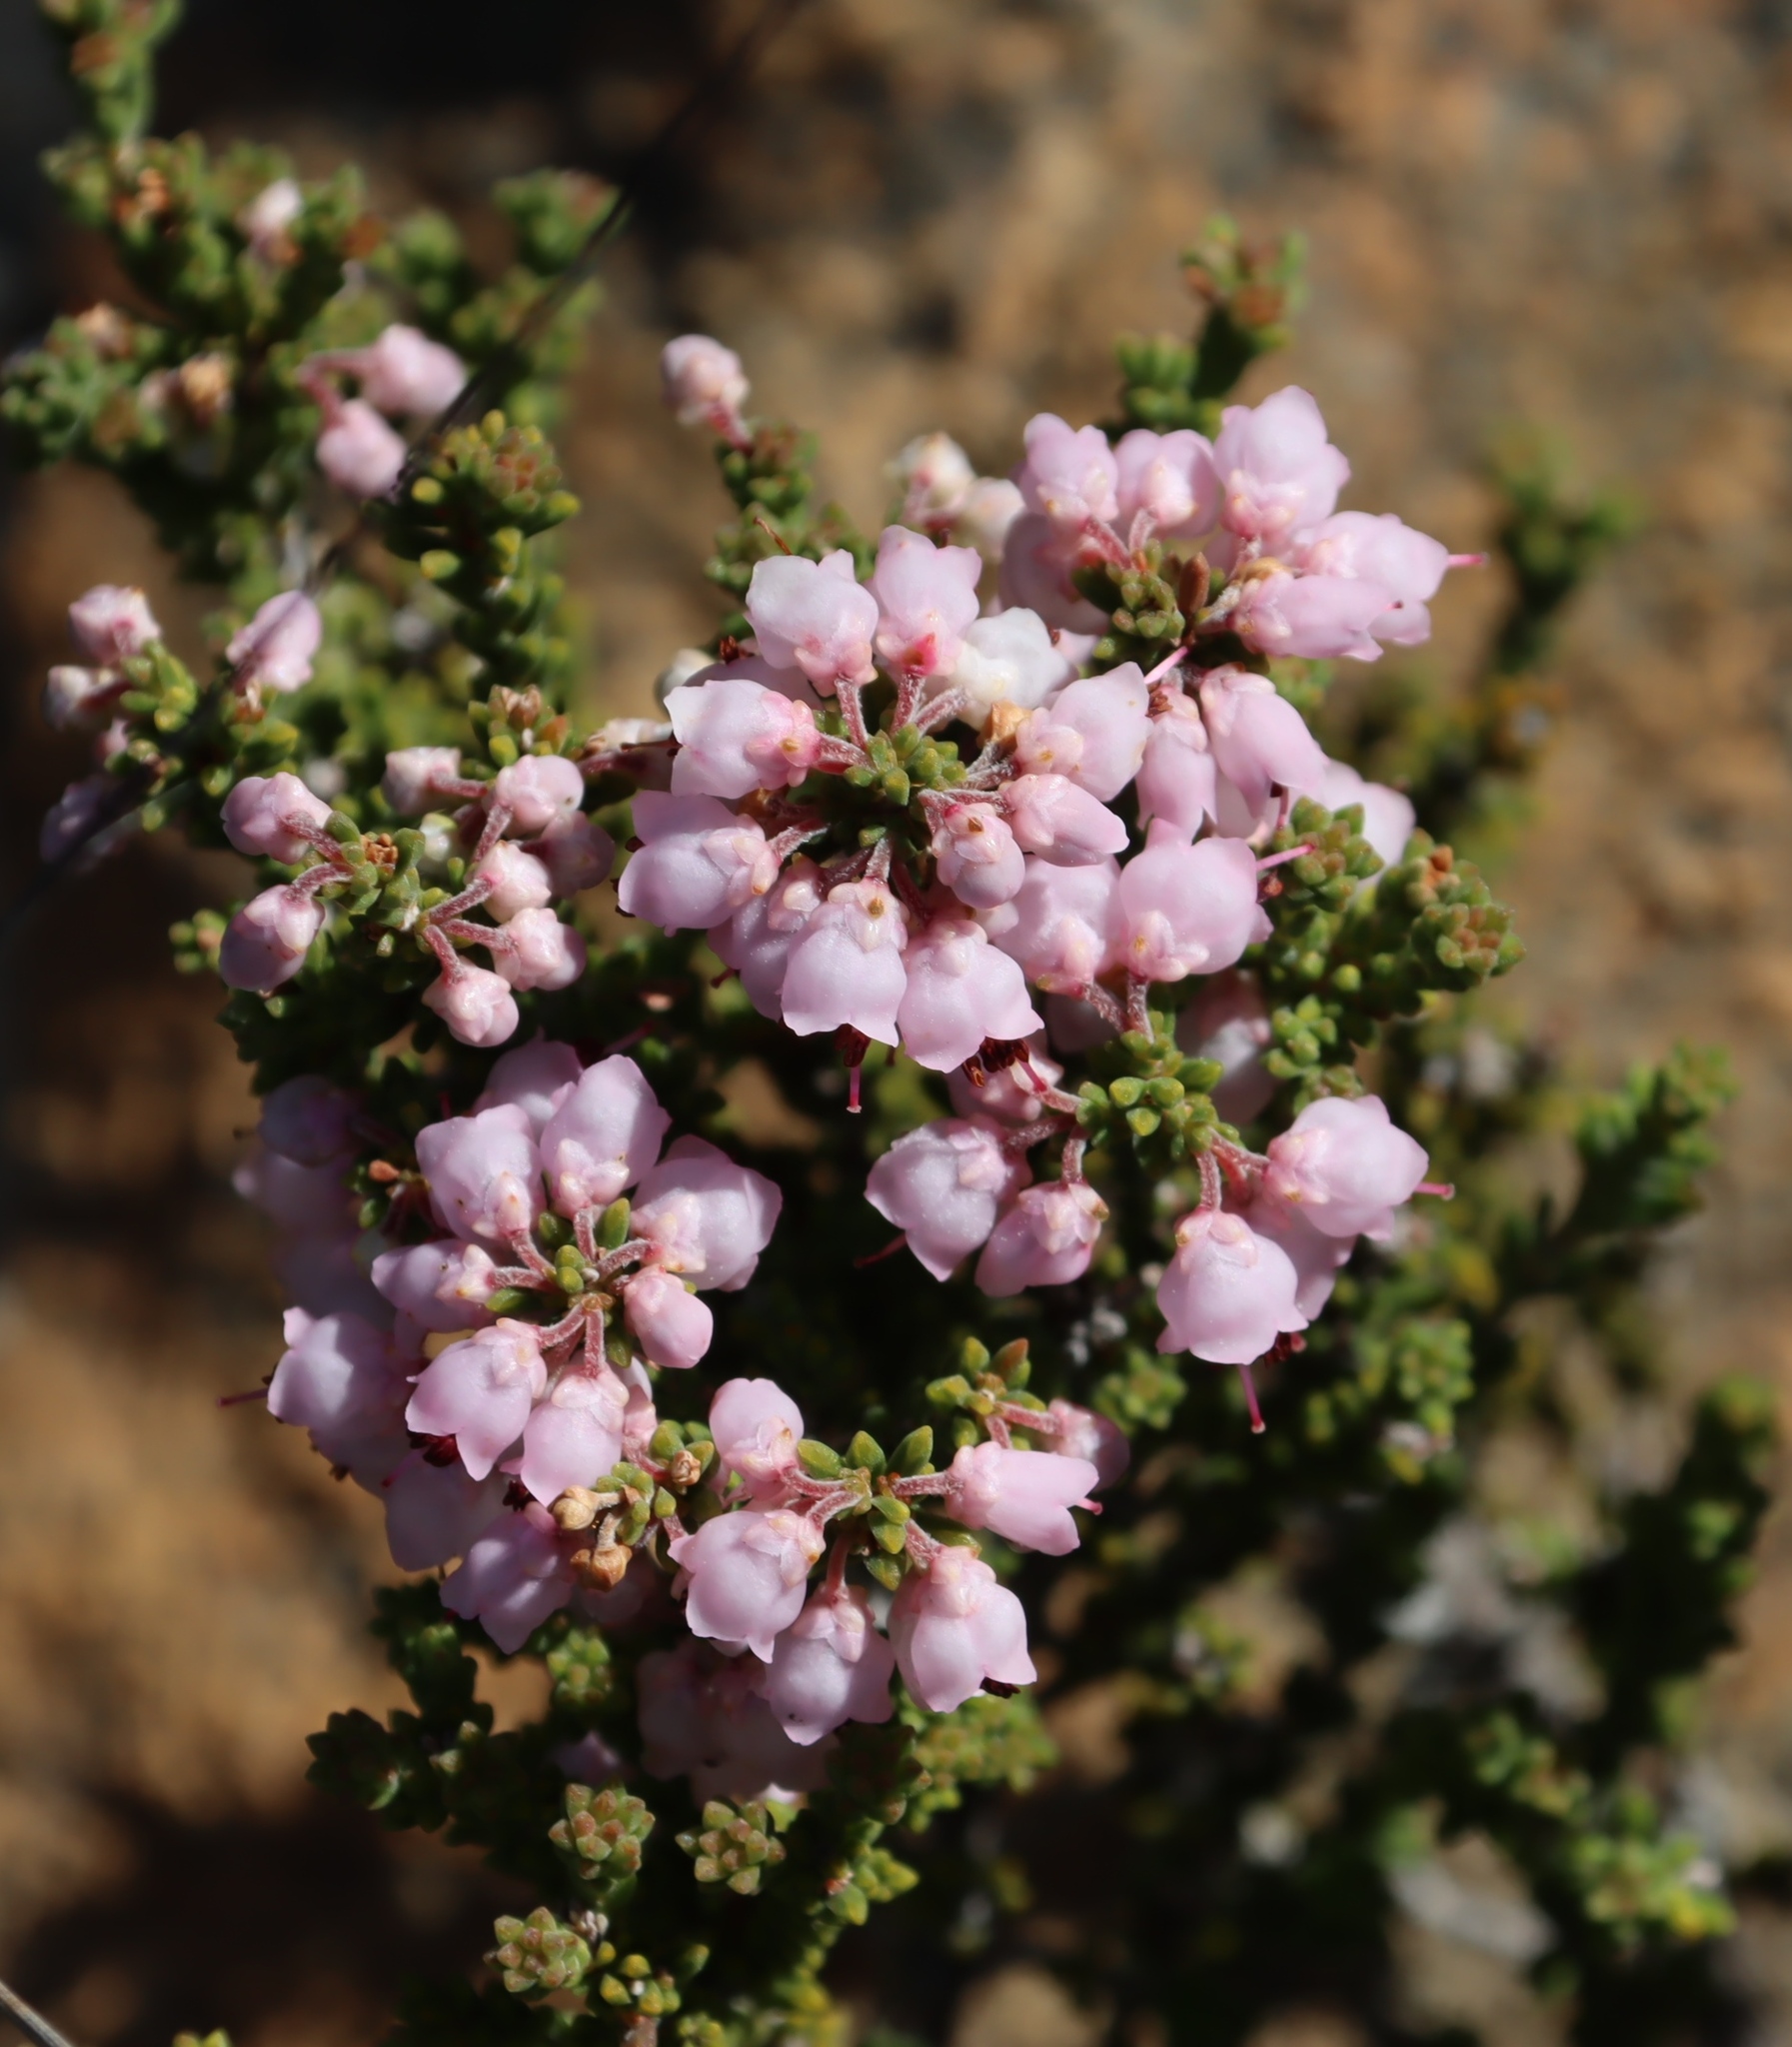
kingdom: Plantae
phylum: Tracheophyta
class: Magnoliopsida
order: Ericales
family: Ericaceae
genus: Erica
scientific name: Erica umbelliflora
